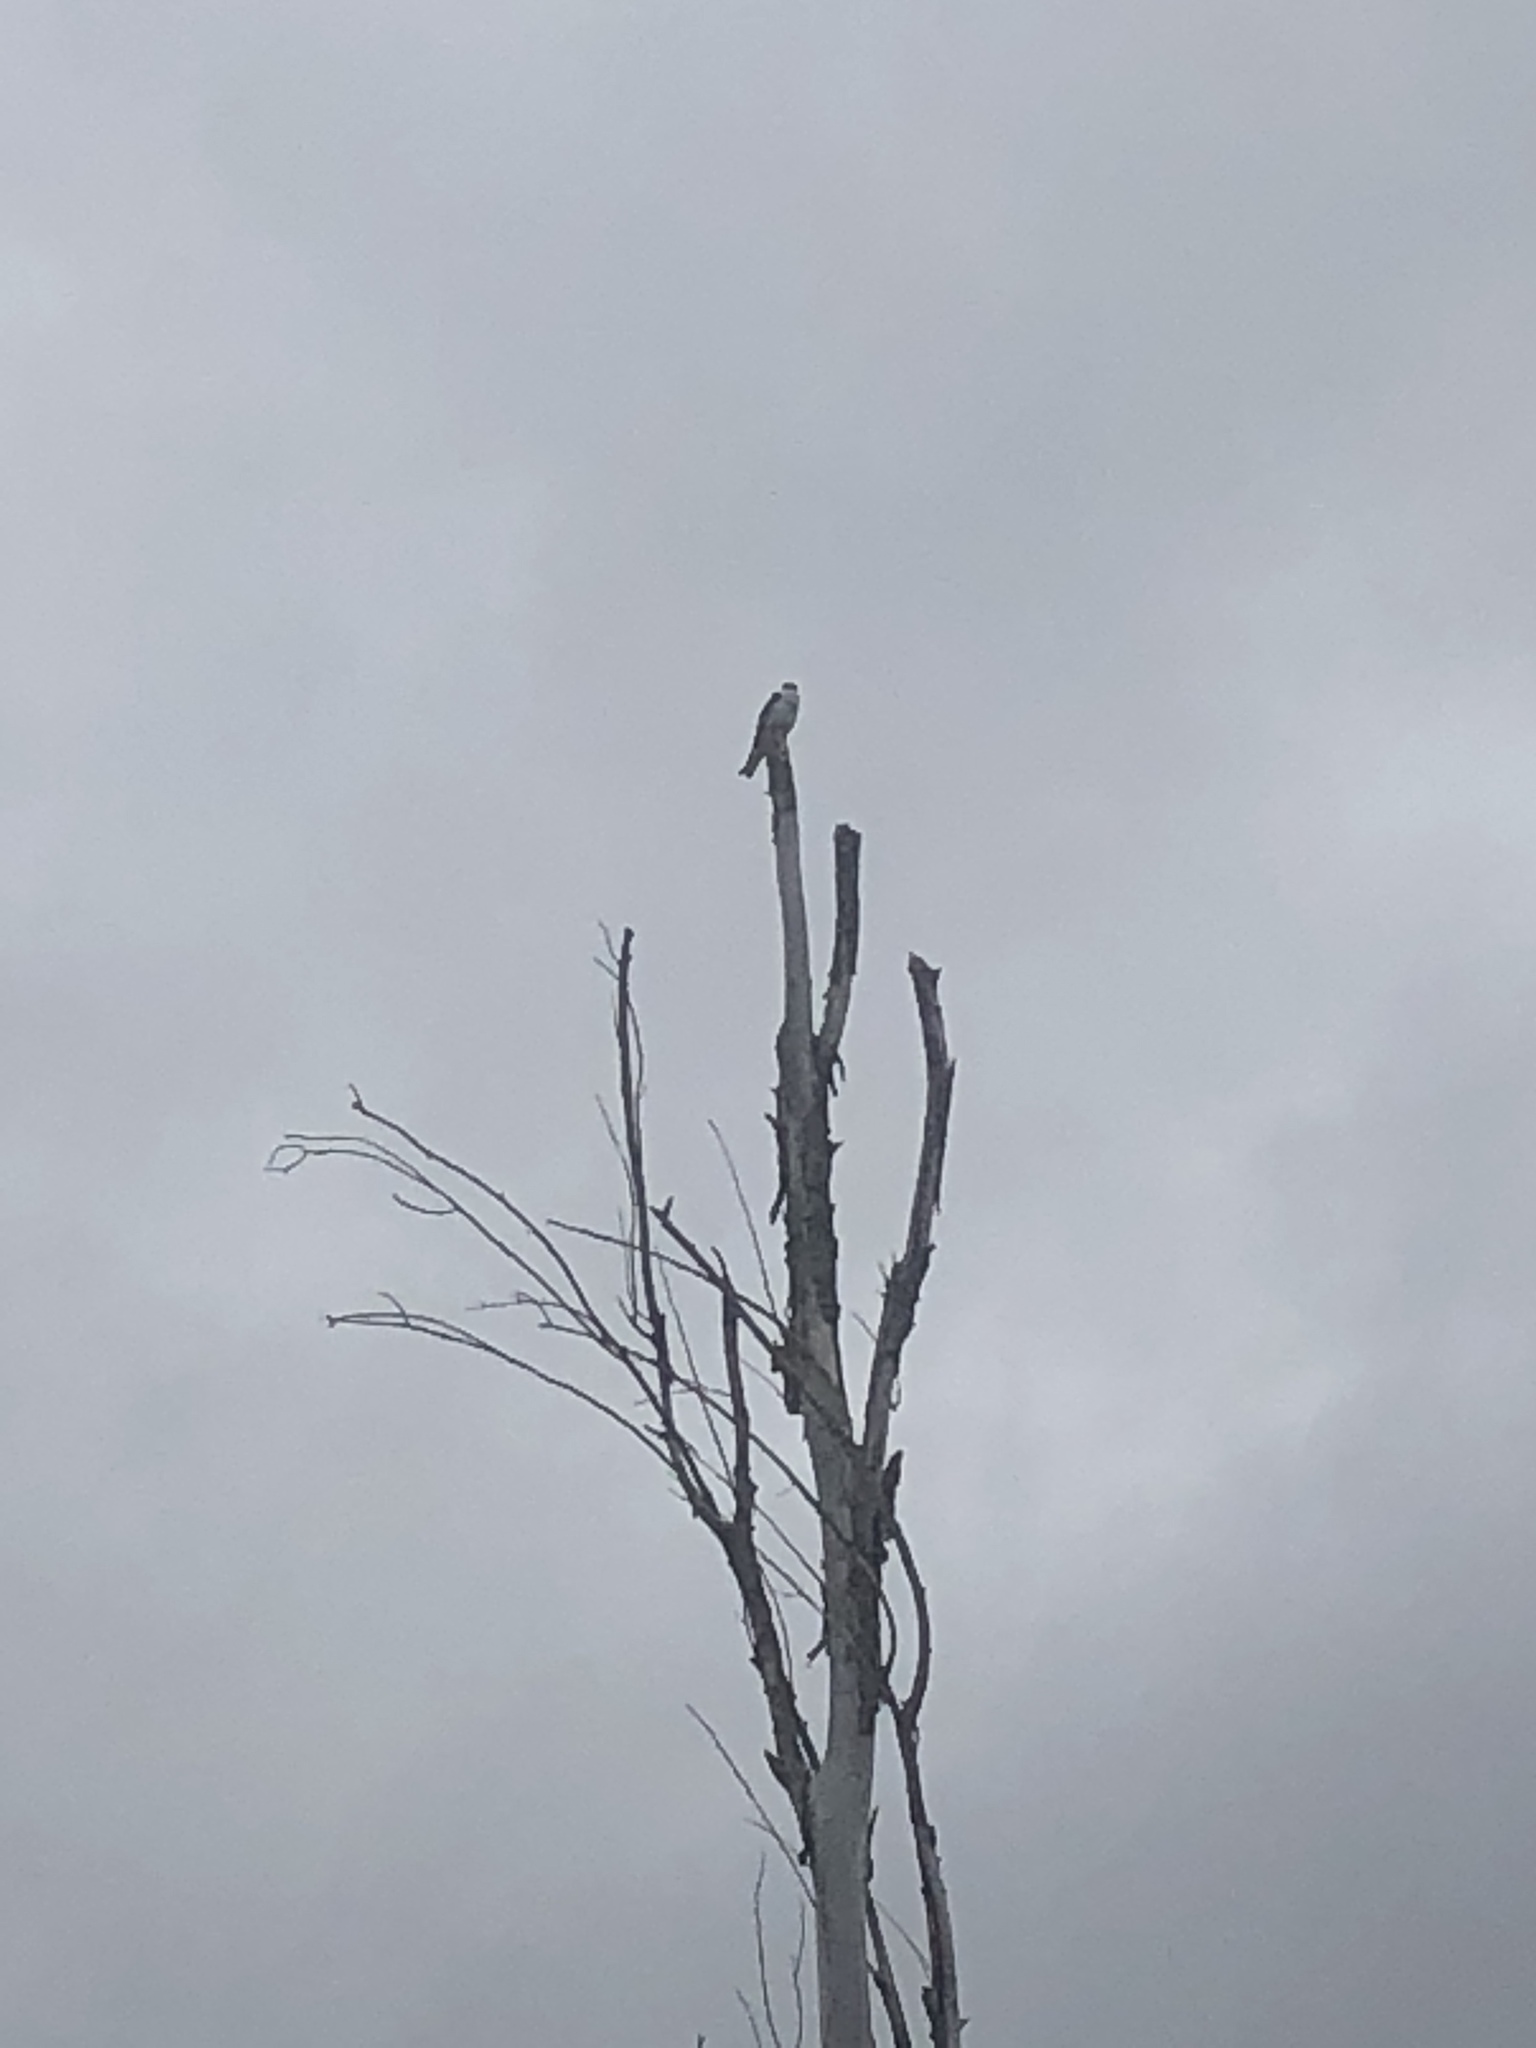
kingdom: Animalia
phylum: Chordata
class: Aves
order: Accipitriformes
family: Accipitridae
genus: Elanus
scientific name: Elanus leucurus
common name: White-tailed kite
